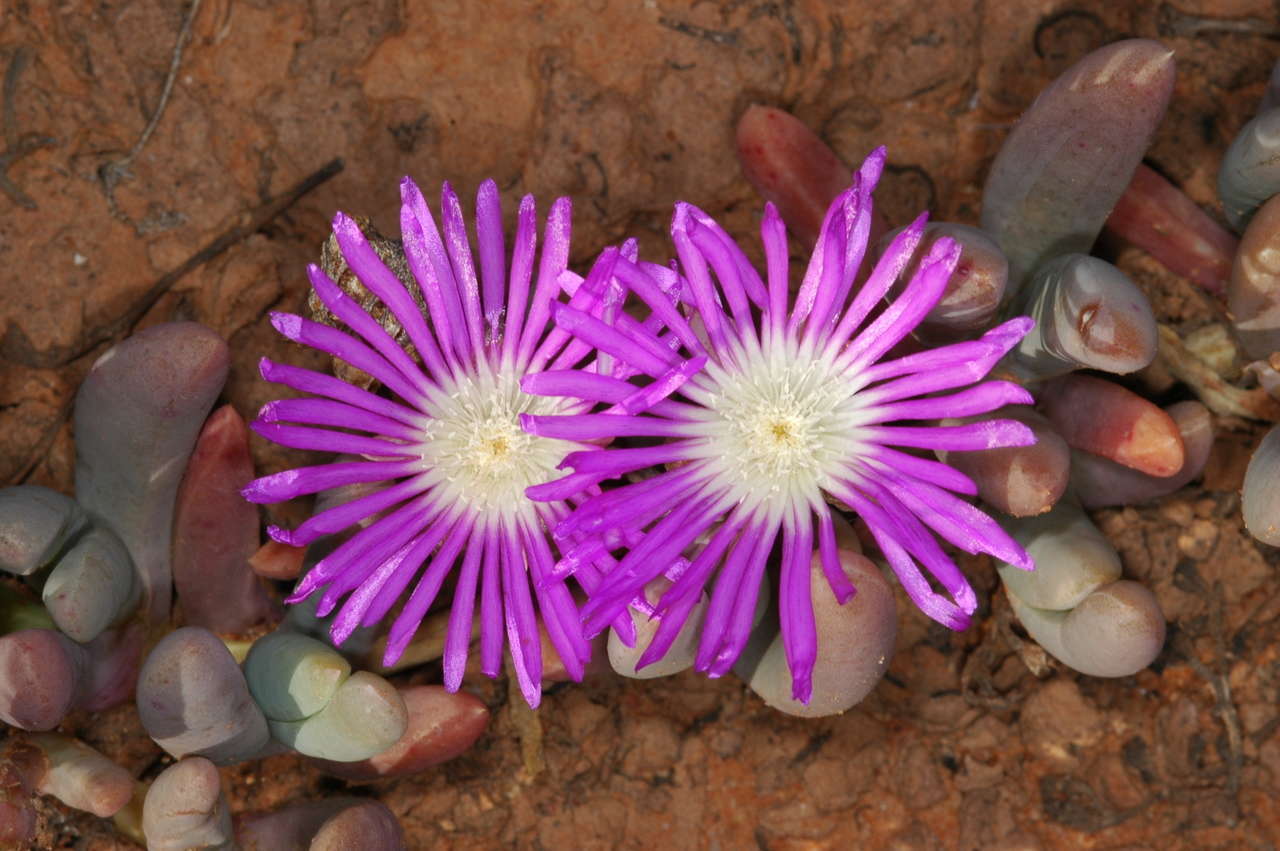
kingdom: Plantae
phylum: Tracheophyta
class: Magnoliopsida
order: Caryophyllales
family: Aizoaceae
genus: Disphyma
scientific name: Disphyma clavellatum
